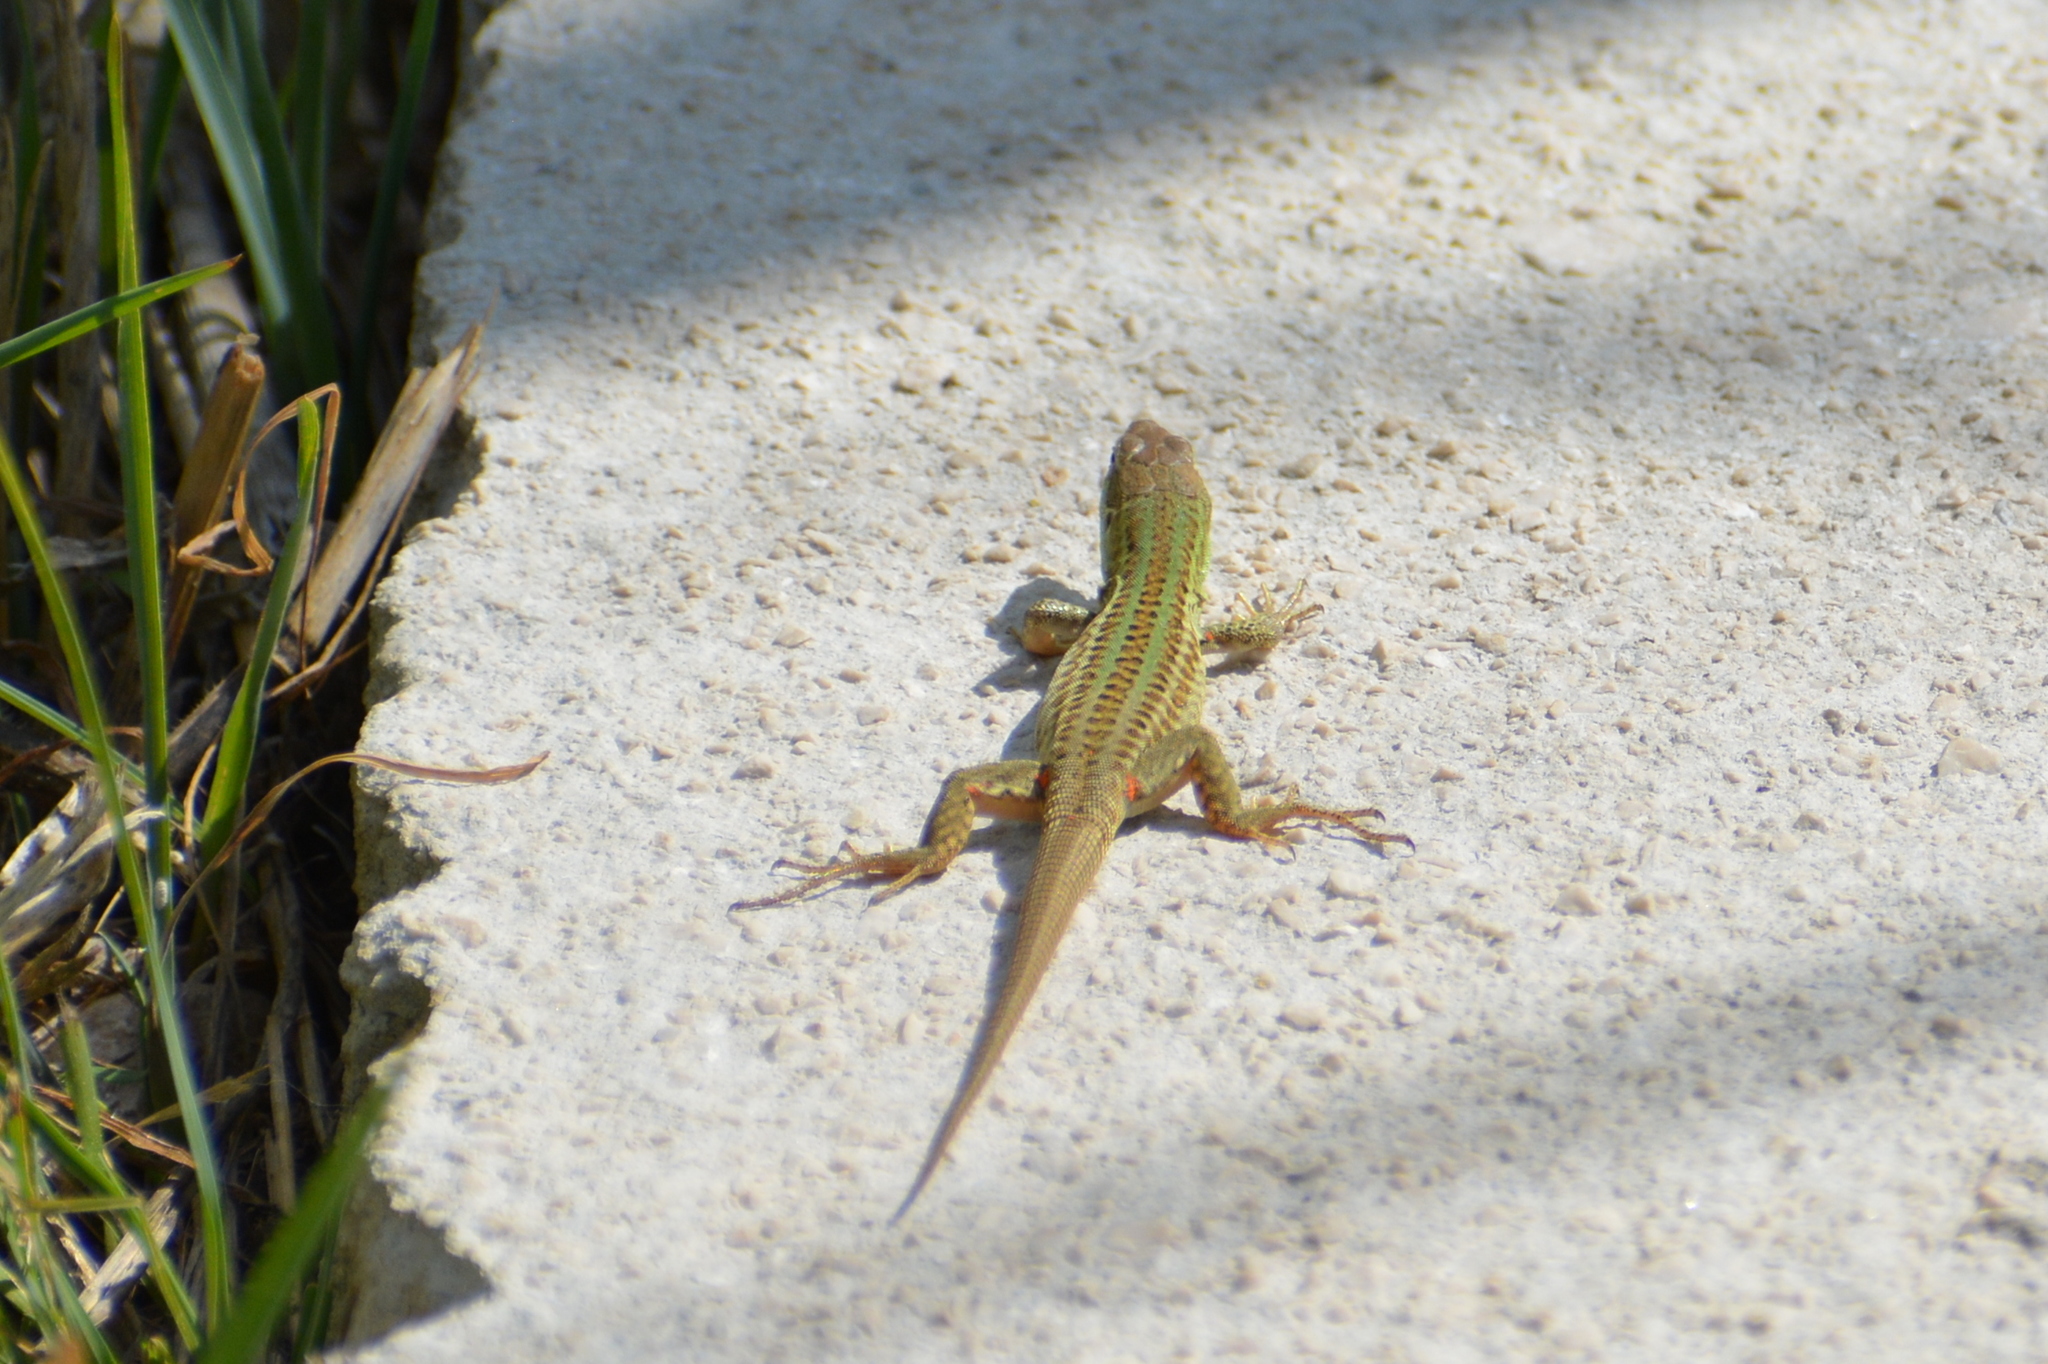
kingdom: Animalia
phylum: Chordata
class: Squamata
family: Lacertidae
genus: Podarcis
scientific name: Podarcis siculus
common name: Italian wall lizard
